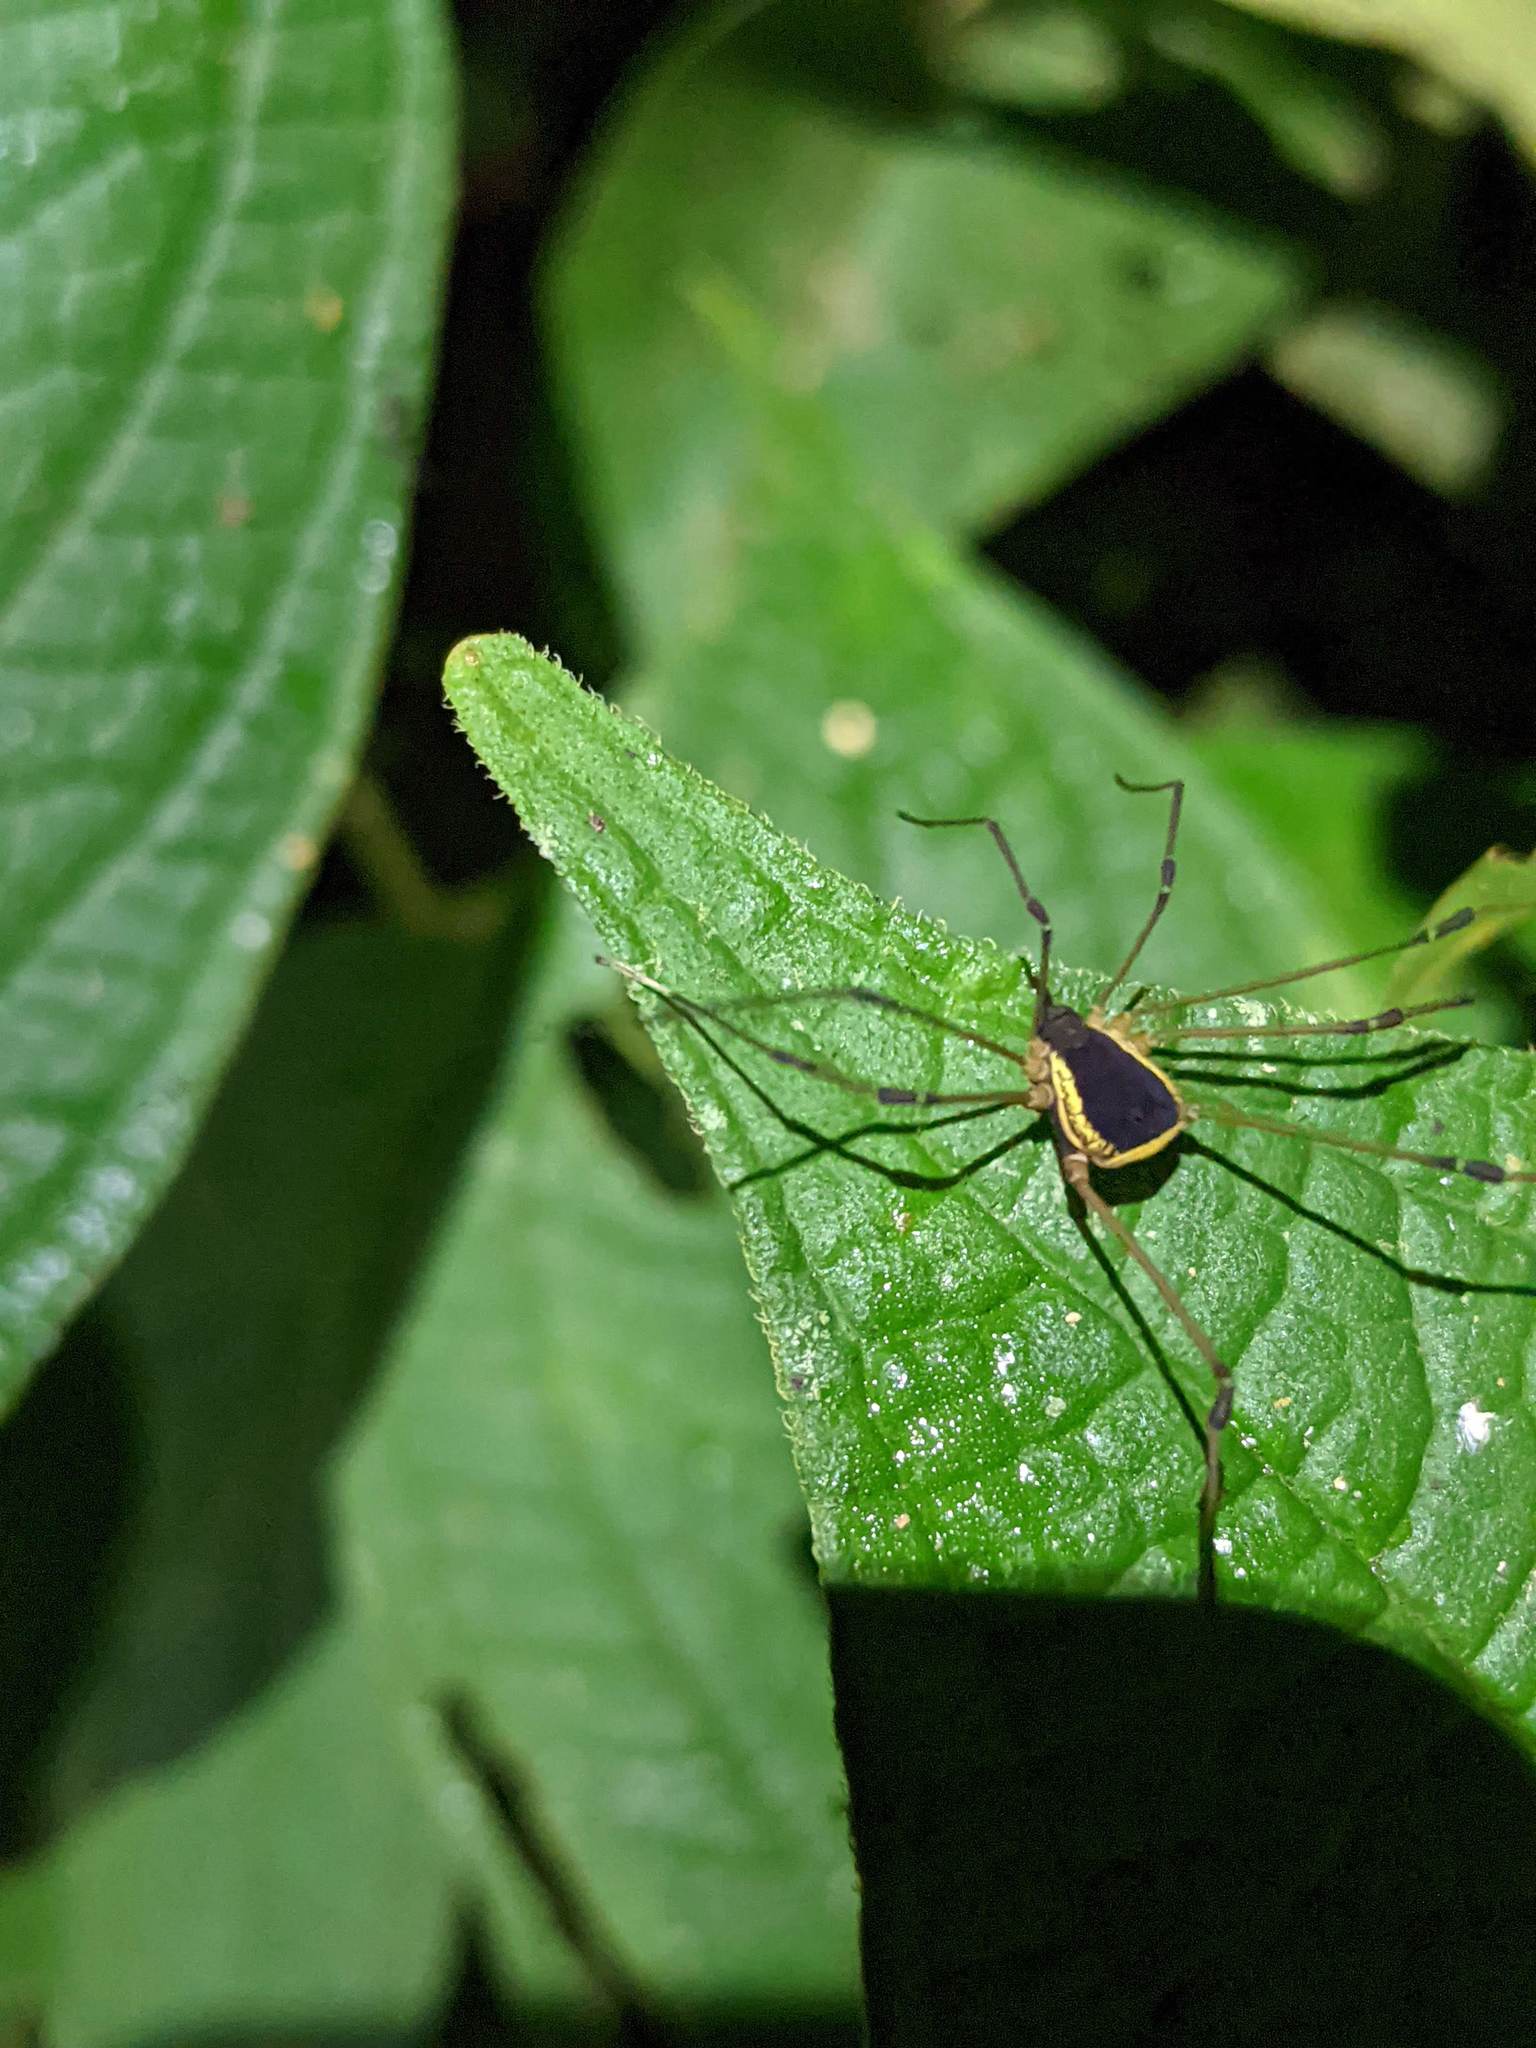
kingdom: Animalia
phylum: Arthropoda
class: Arachnida
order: Opiliones
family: Cosmetidae
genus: Cynorta
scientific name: Cynorta marginalis
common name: Harvestmen
